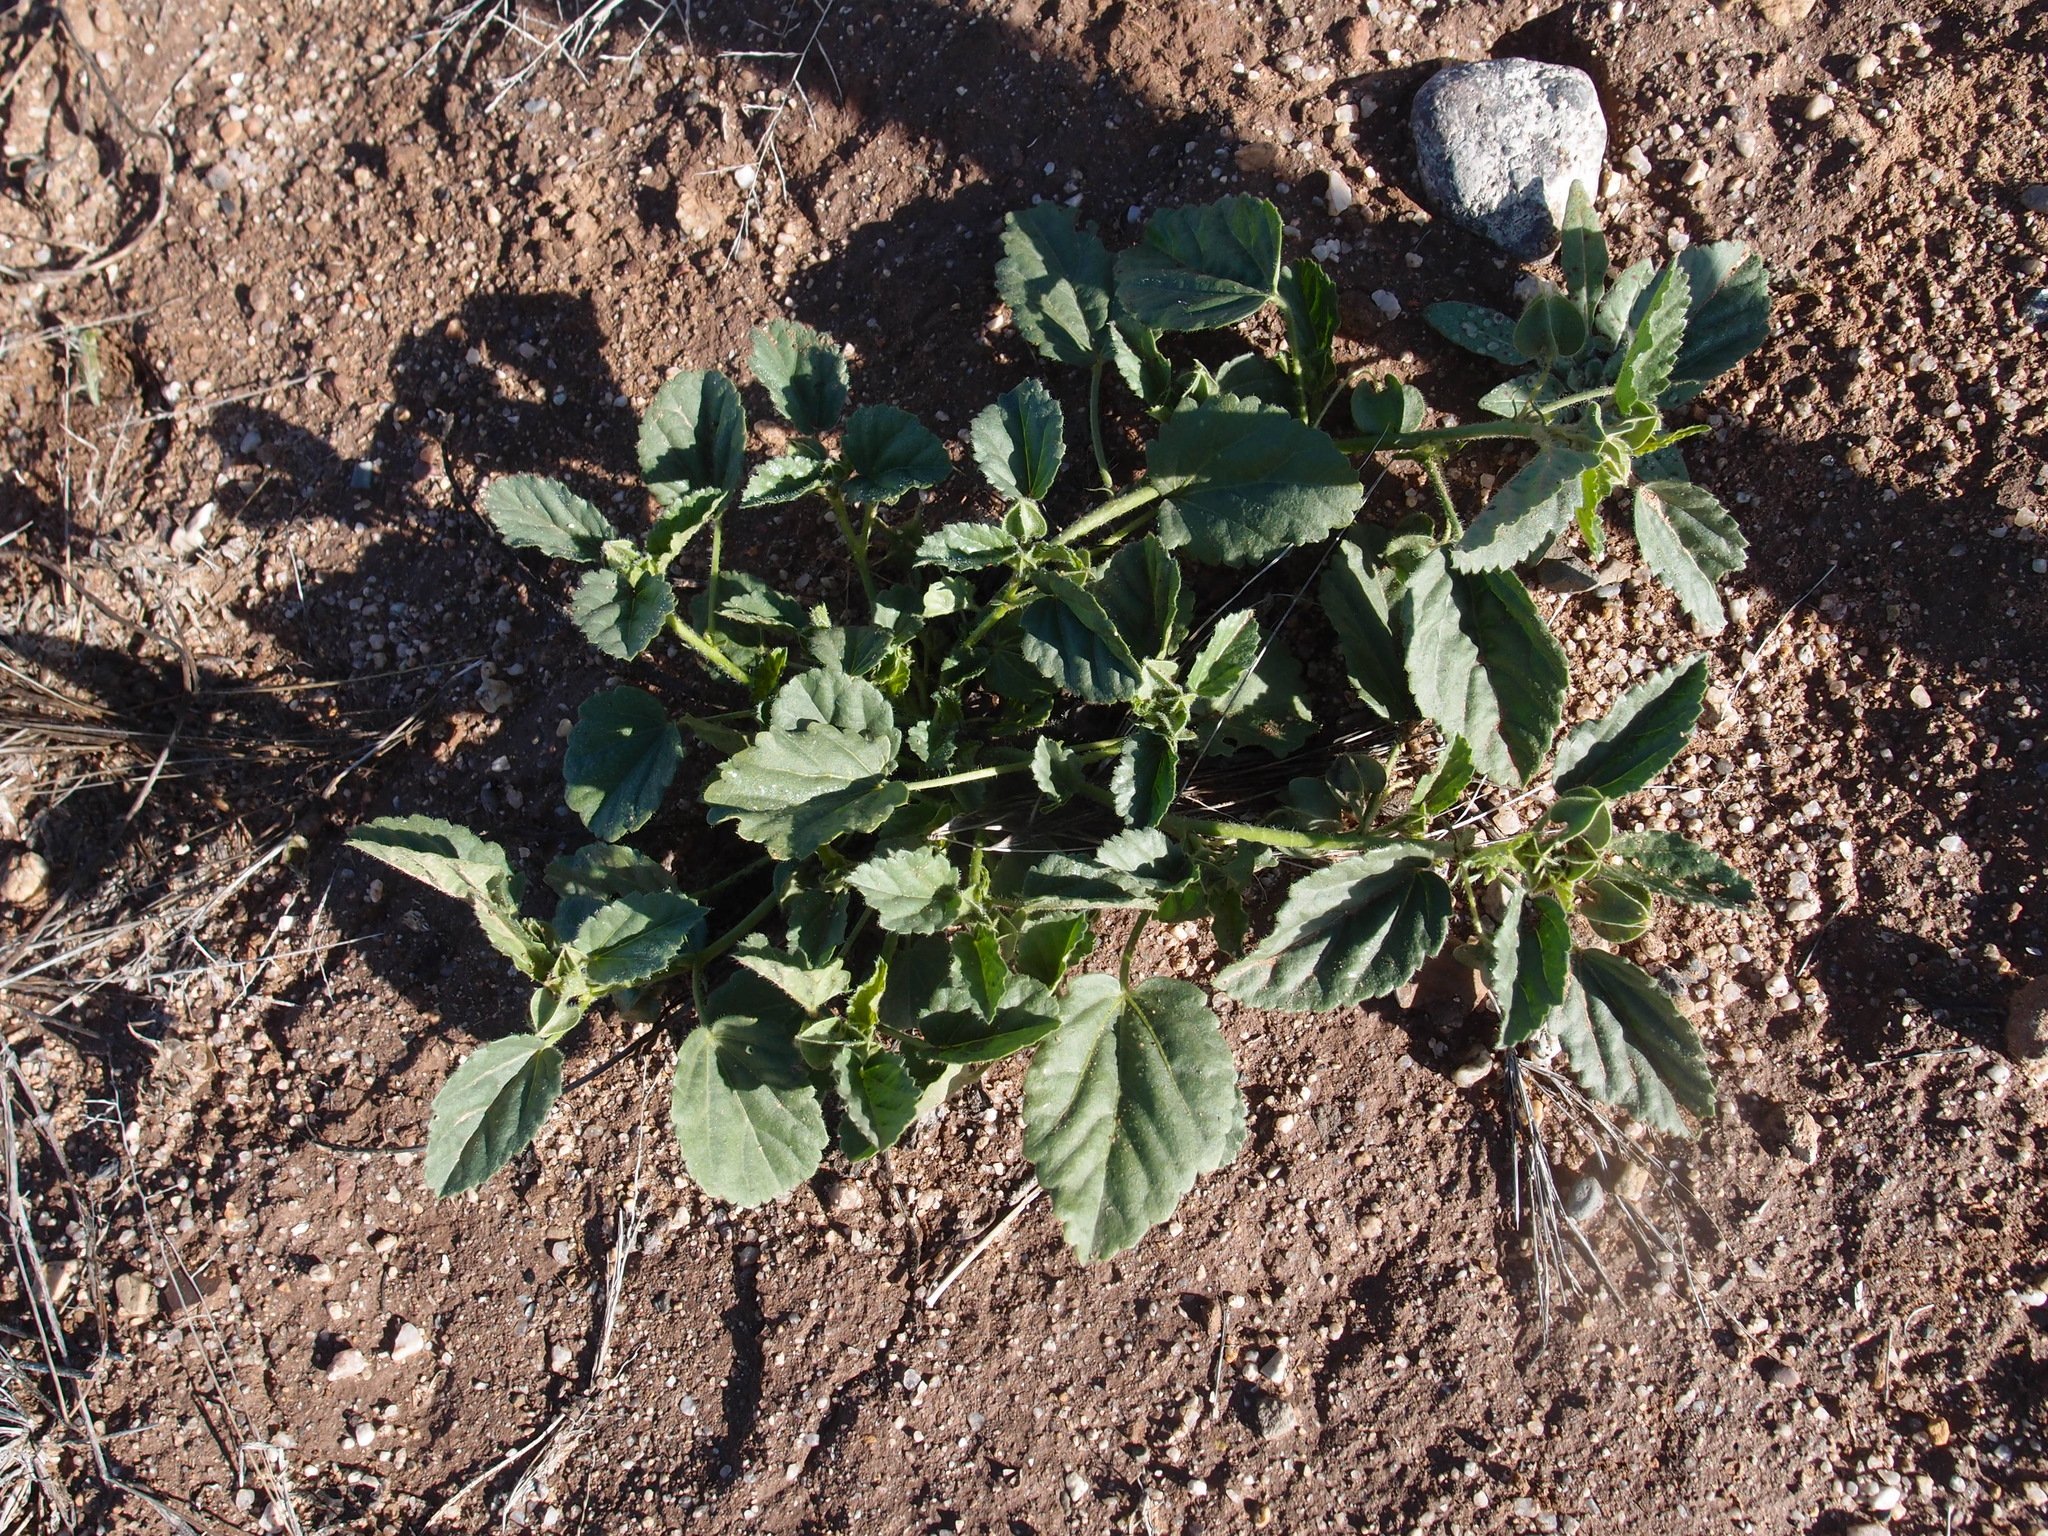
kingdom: Plantae
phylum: Tracheophyta
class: Magnoliopsida
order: Malvales
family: Malvaceae
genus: Rhynchosida
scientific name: Rhynchosida physocalyx
